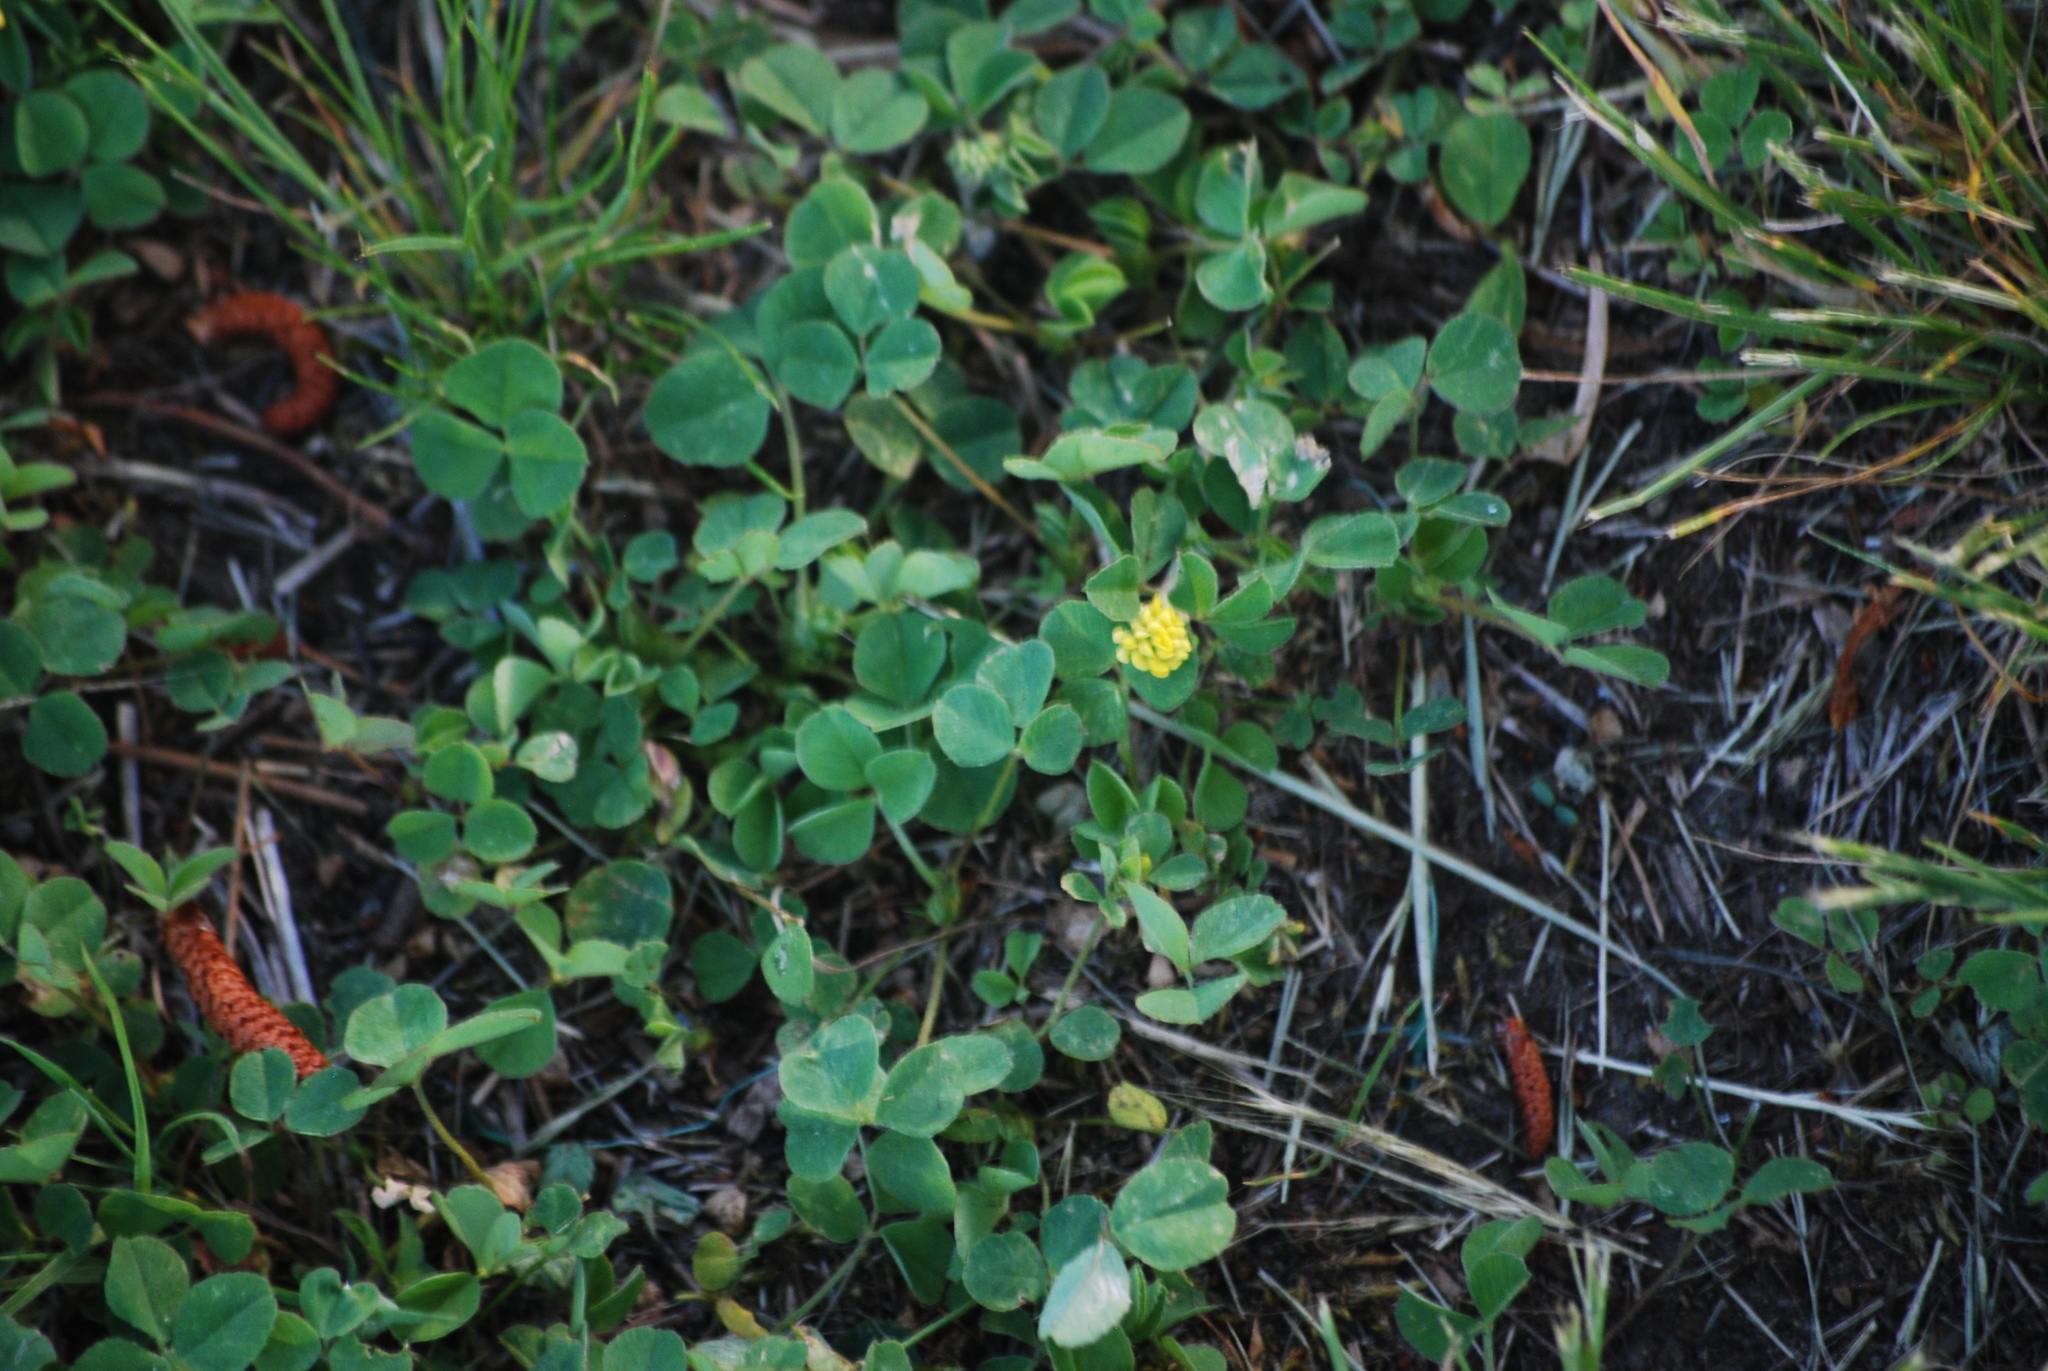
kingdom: Plantae
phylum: Tracheophyta
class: Magnoliopsida
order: Fabales
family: Fabaceae
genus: Medicago
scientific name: Medicago lupulina
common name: Black medick
